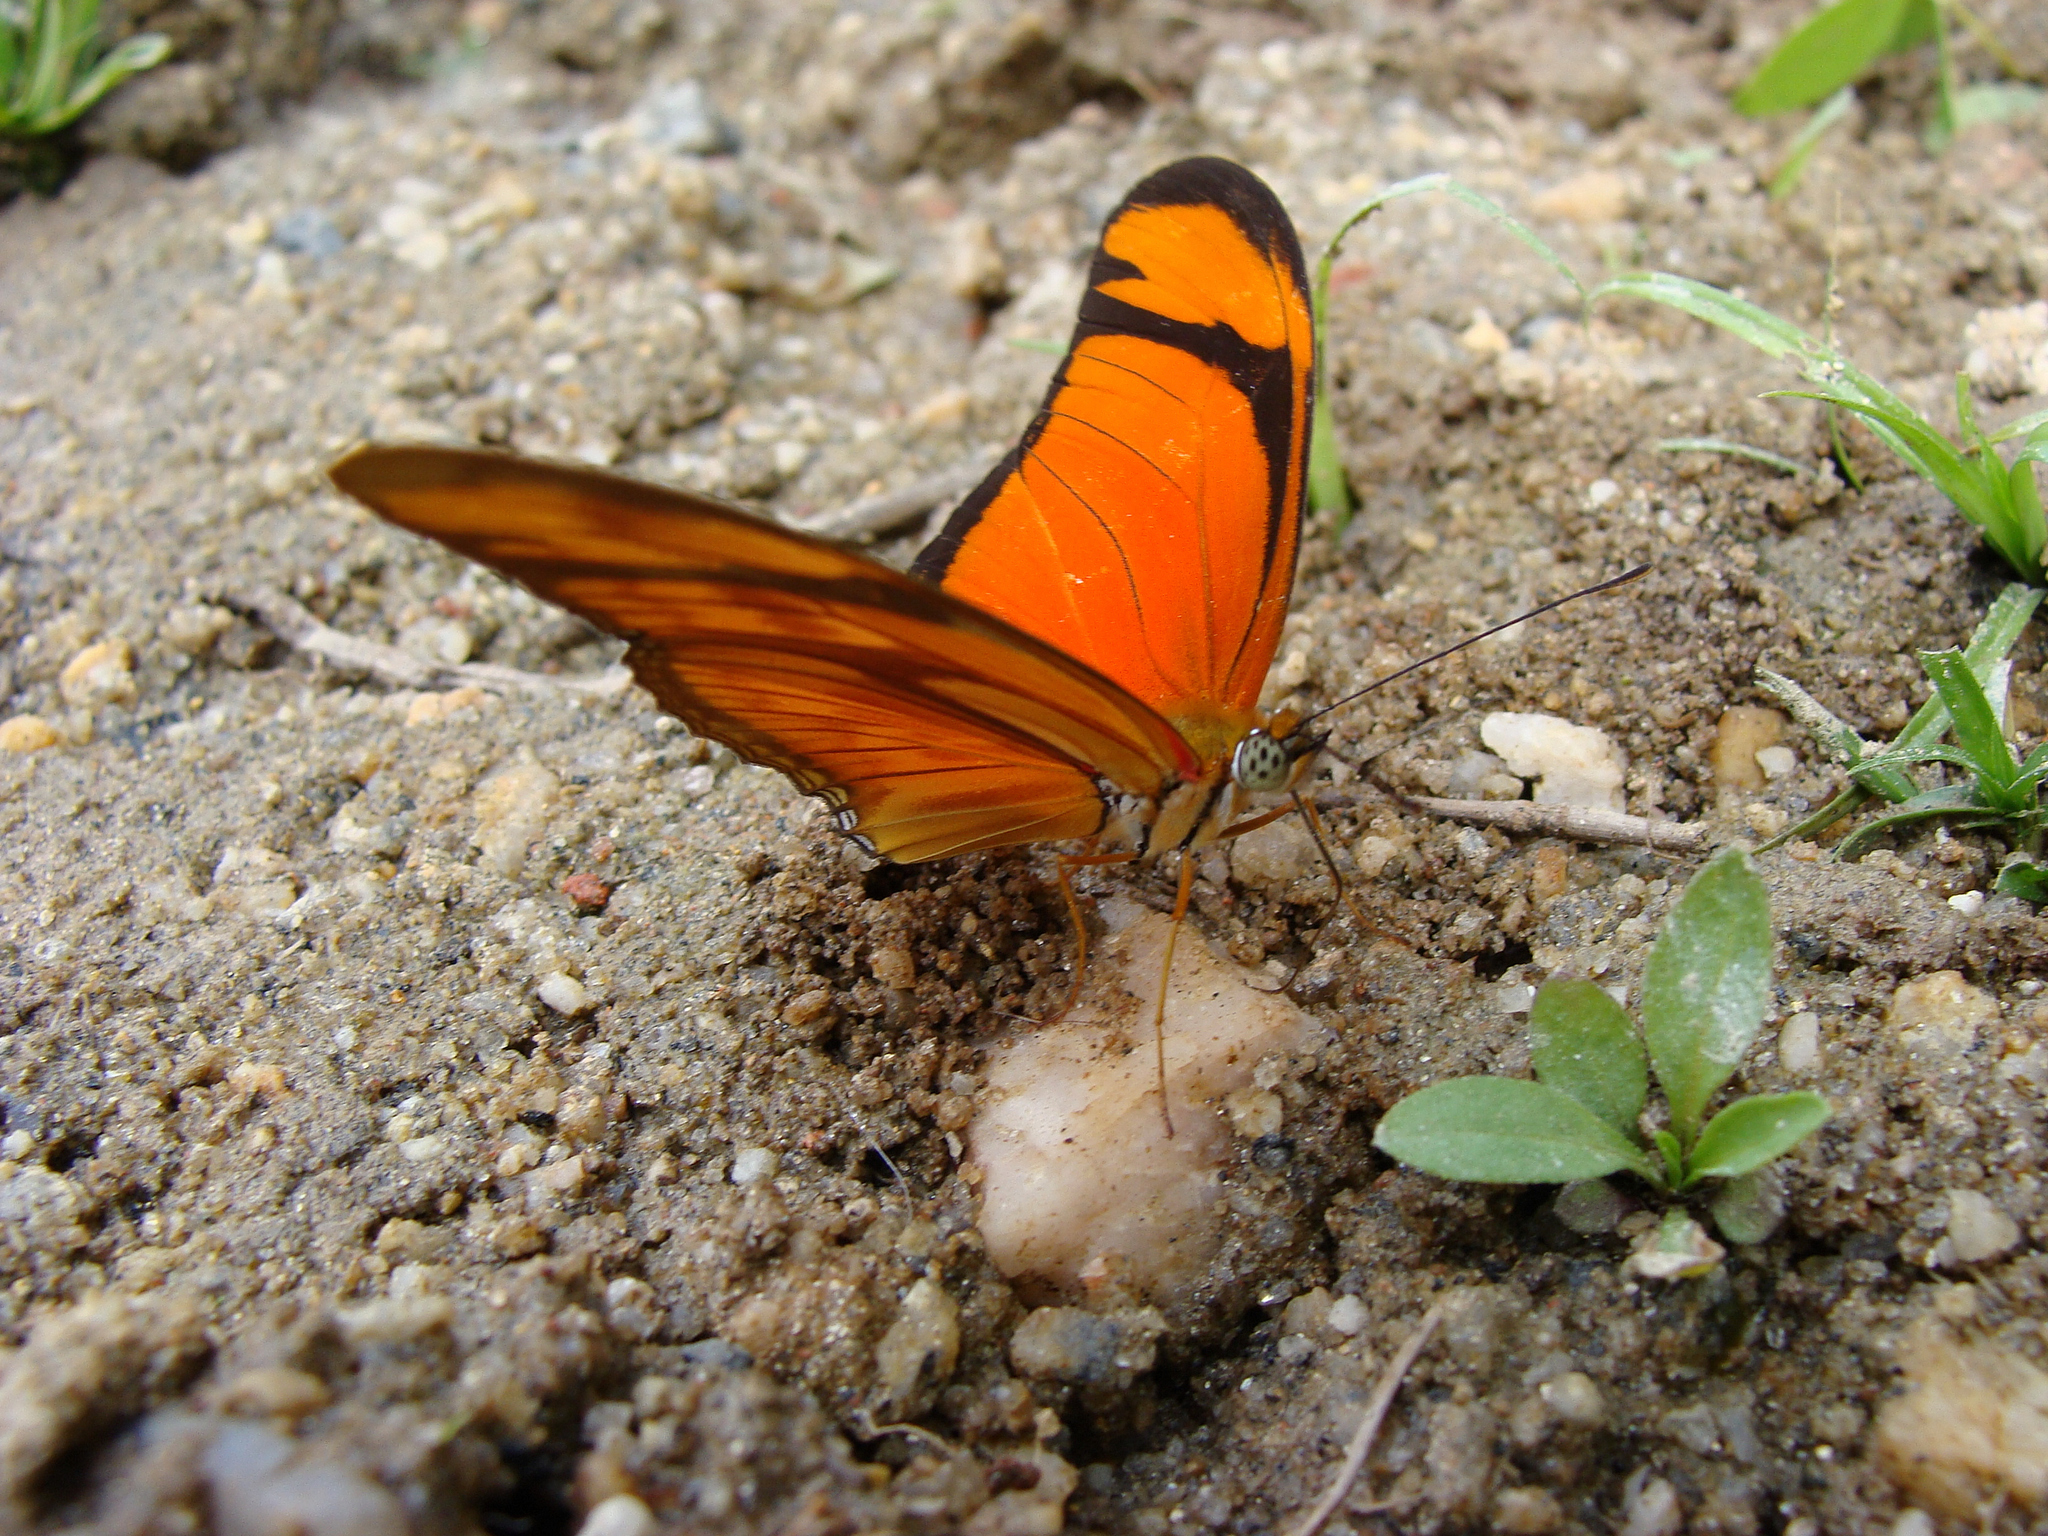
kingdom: Animalia
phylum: Arthropoda
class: Insecta
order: Lepidoptera
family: Nymphalidae
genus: Dryas
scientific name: Dryas iulia
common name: Flambeau
